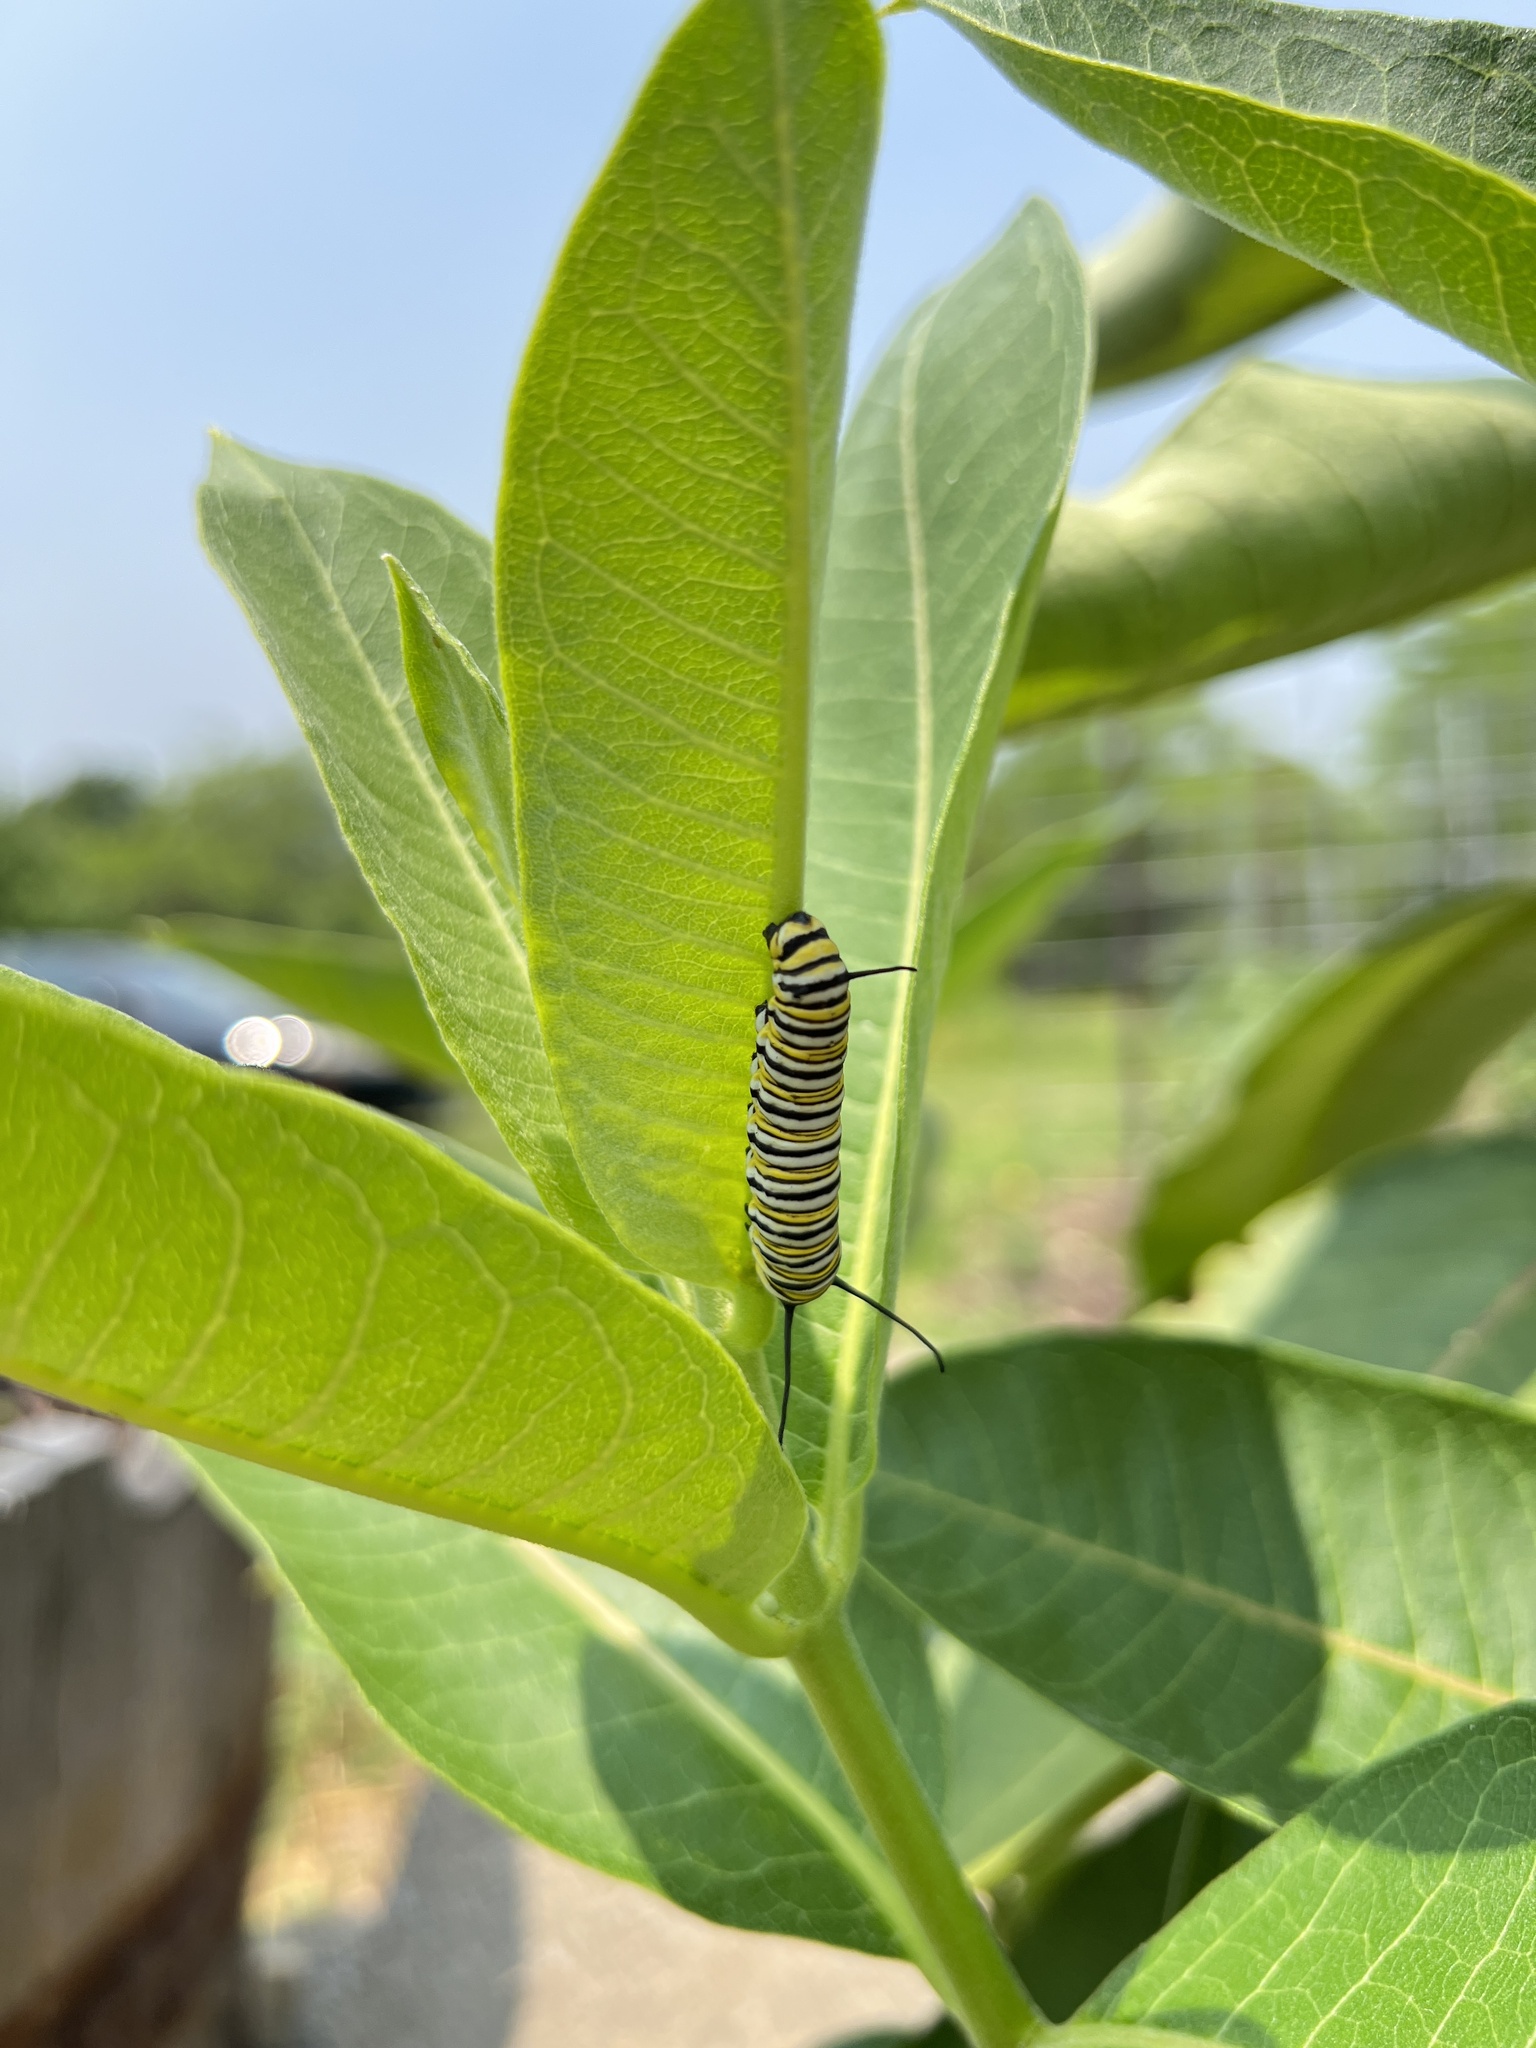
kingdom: Animalia
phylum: Arthropoda
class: Insecta
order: Lepidoptera
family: Nymphalidae
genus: Danaus
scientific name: Danaus plexippus
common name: Monarch
